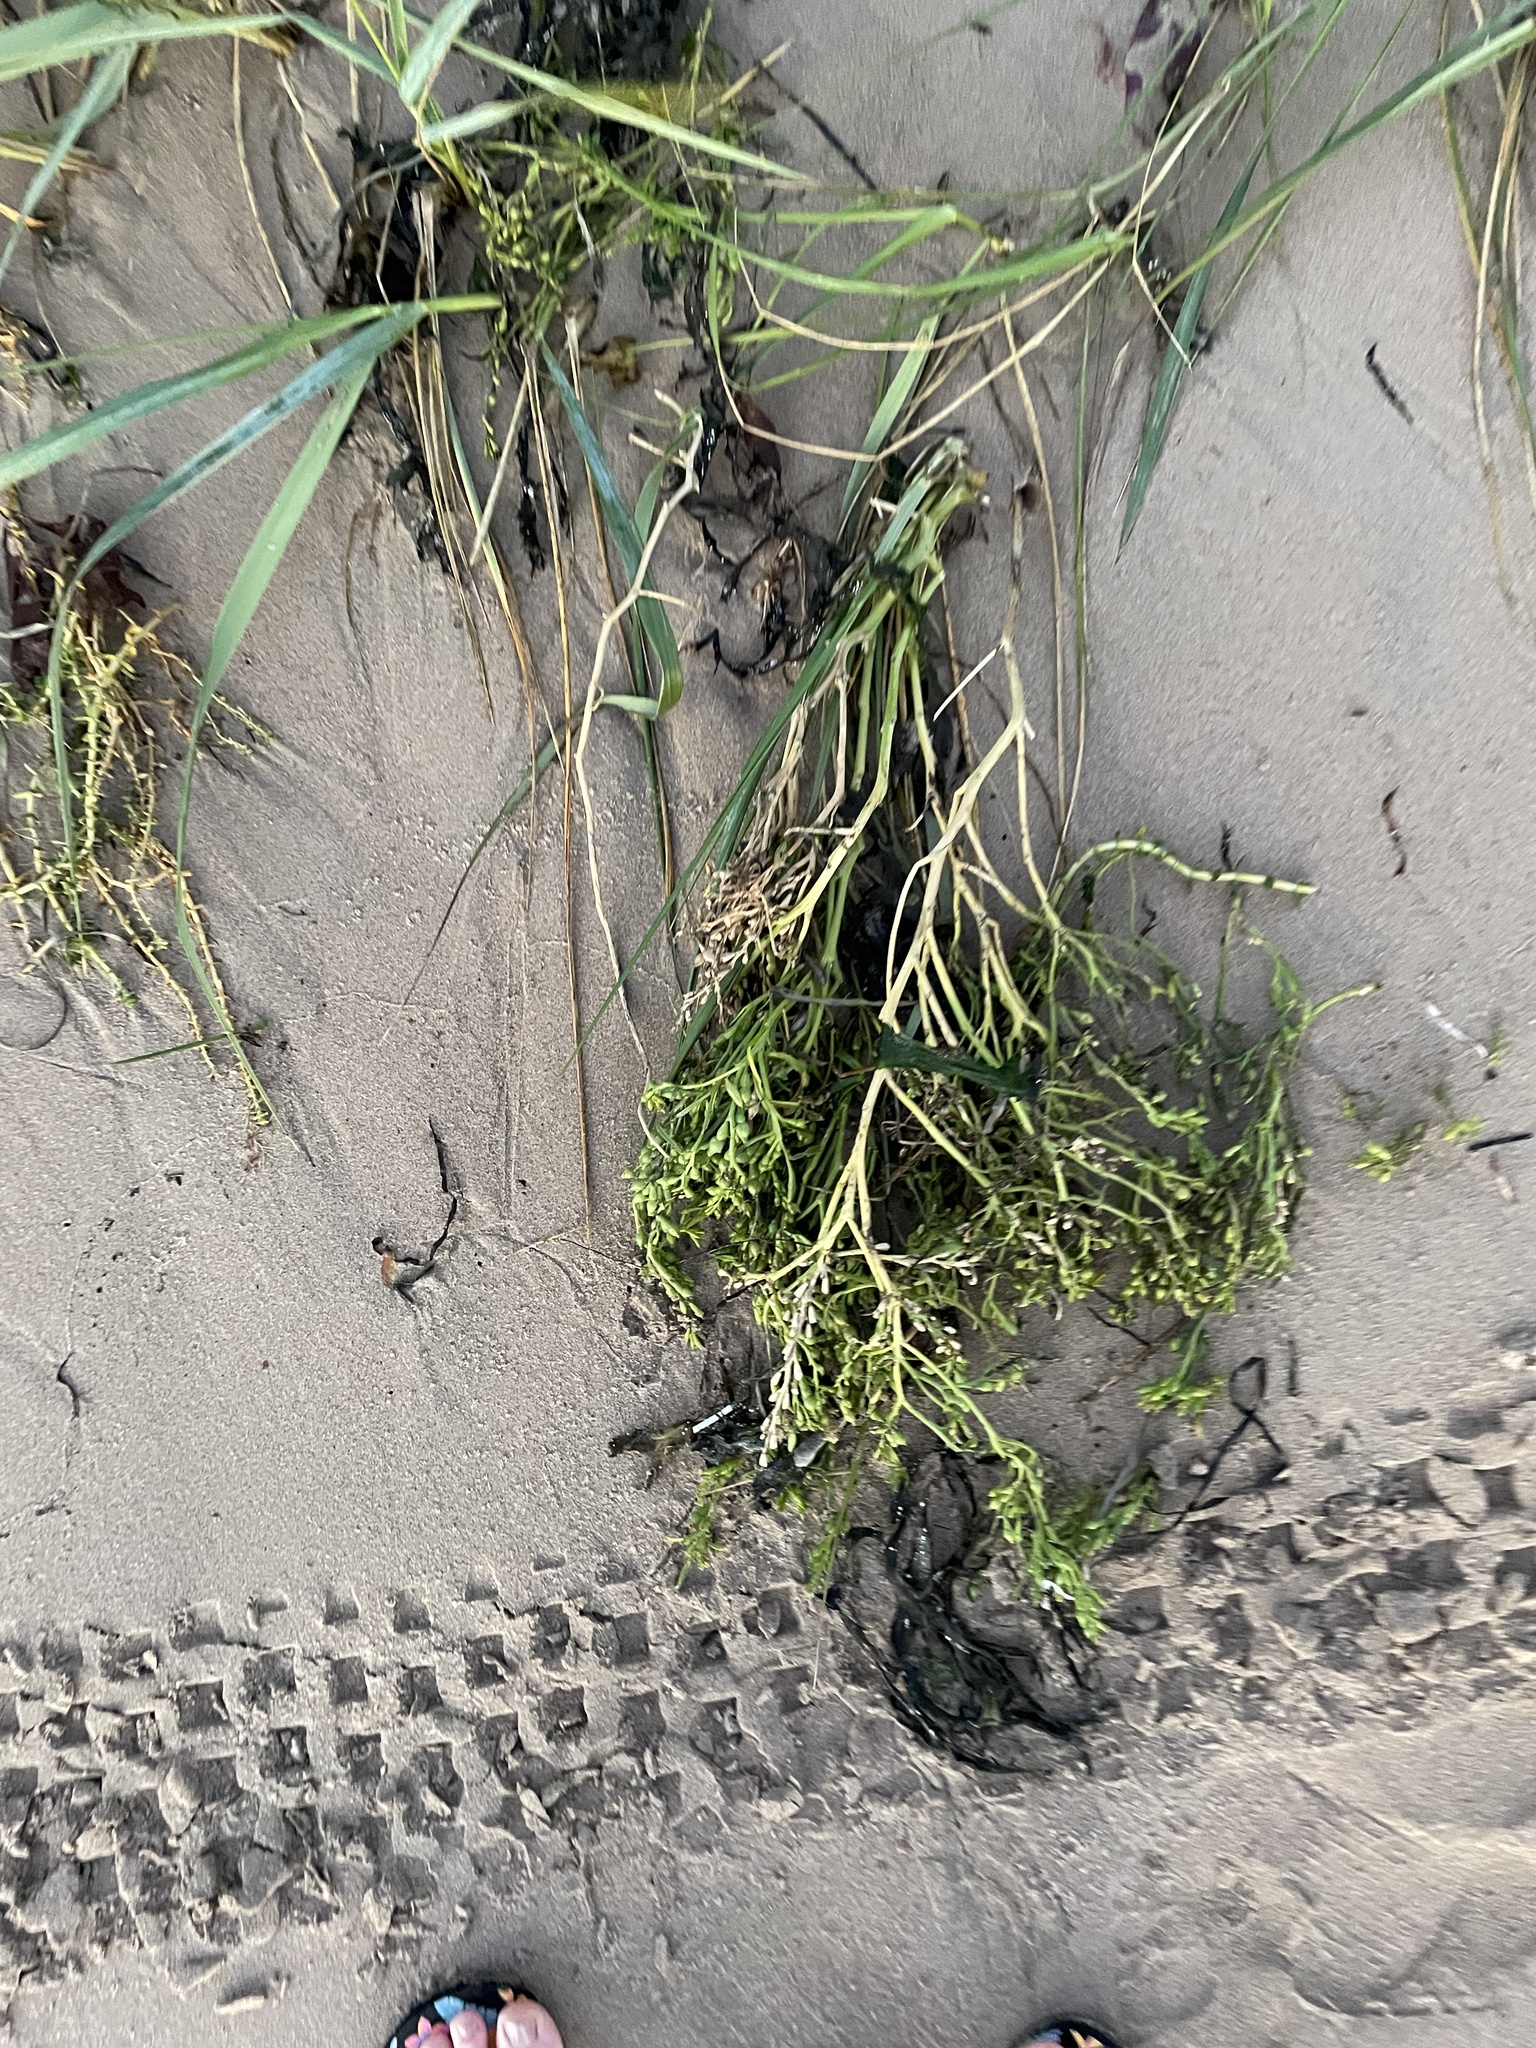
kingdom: Plantae
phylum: Tracheophyta
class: Magnoliopsida
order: Brassicales
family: Brassicaceae
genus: Cakile
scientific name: Cakile edentula
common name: American sea rocket
